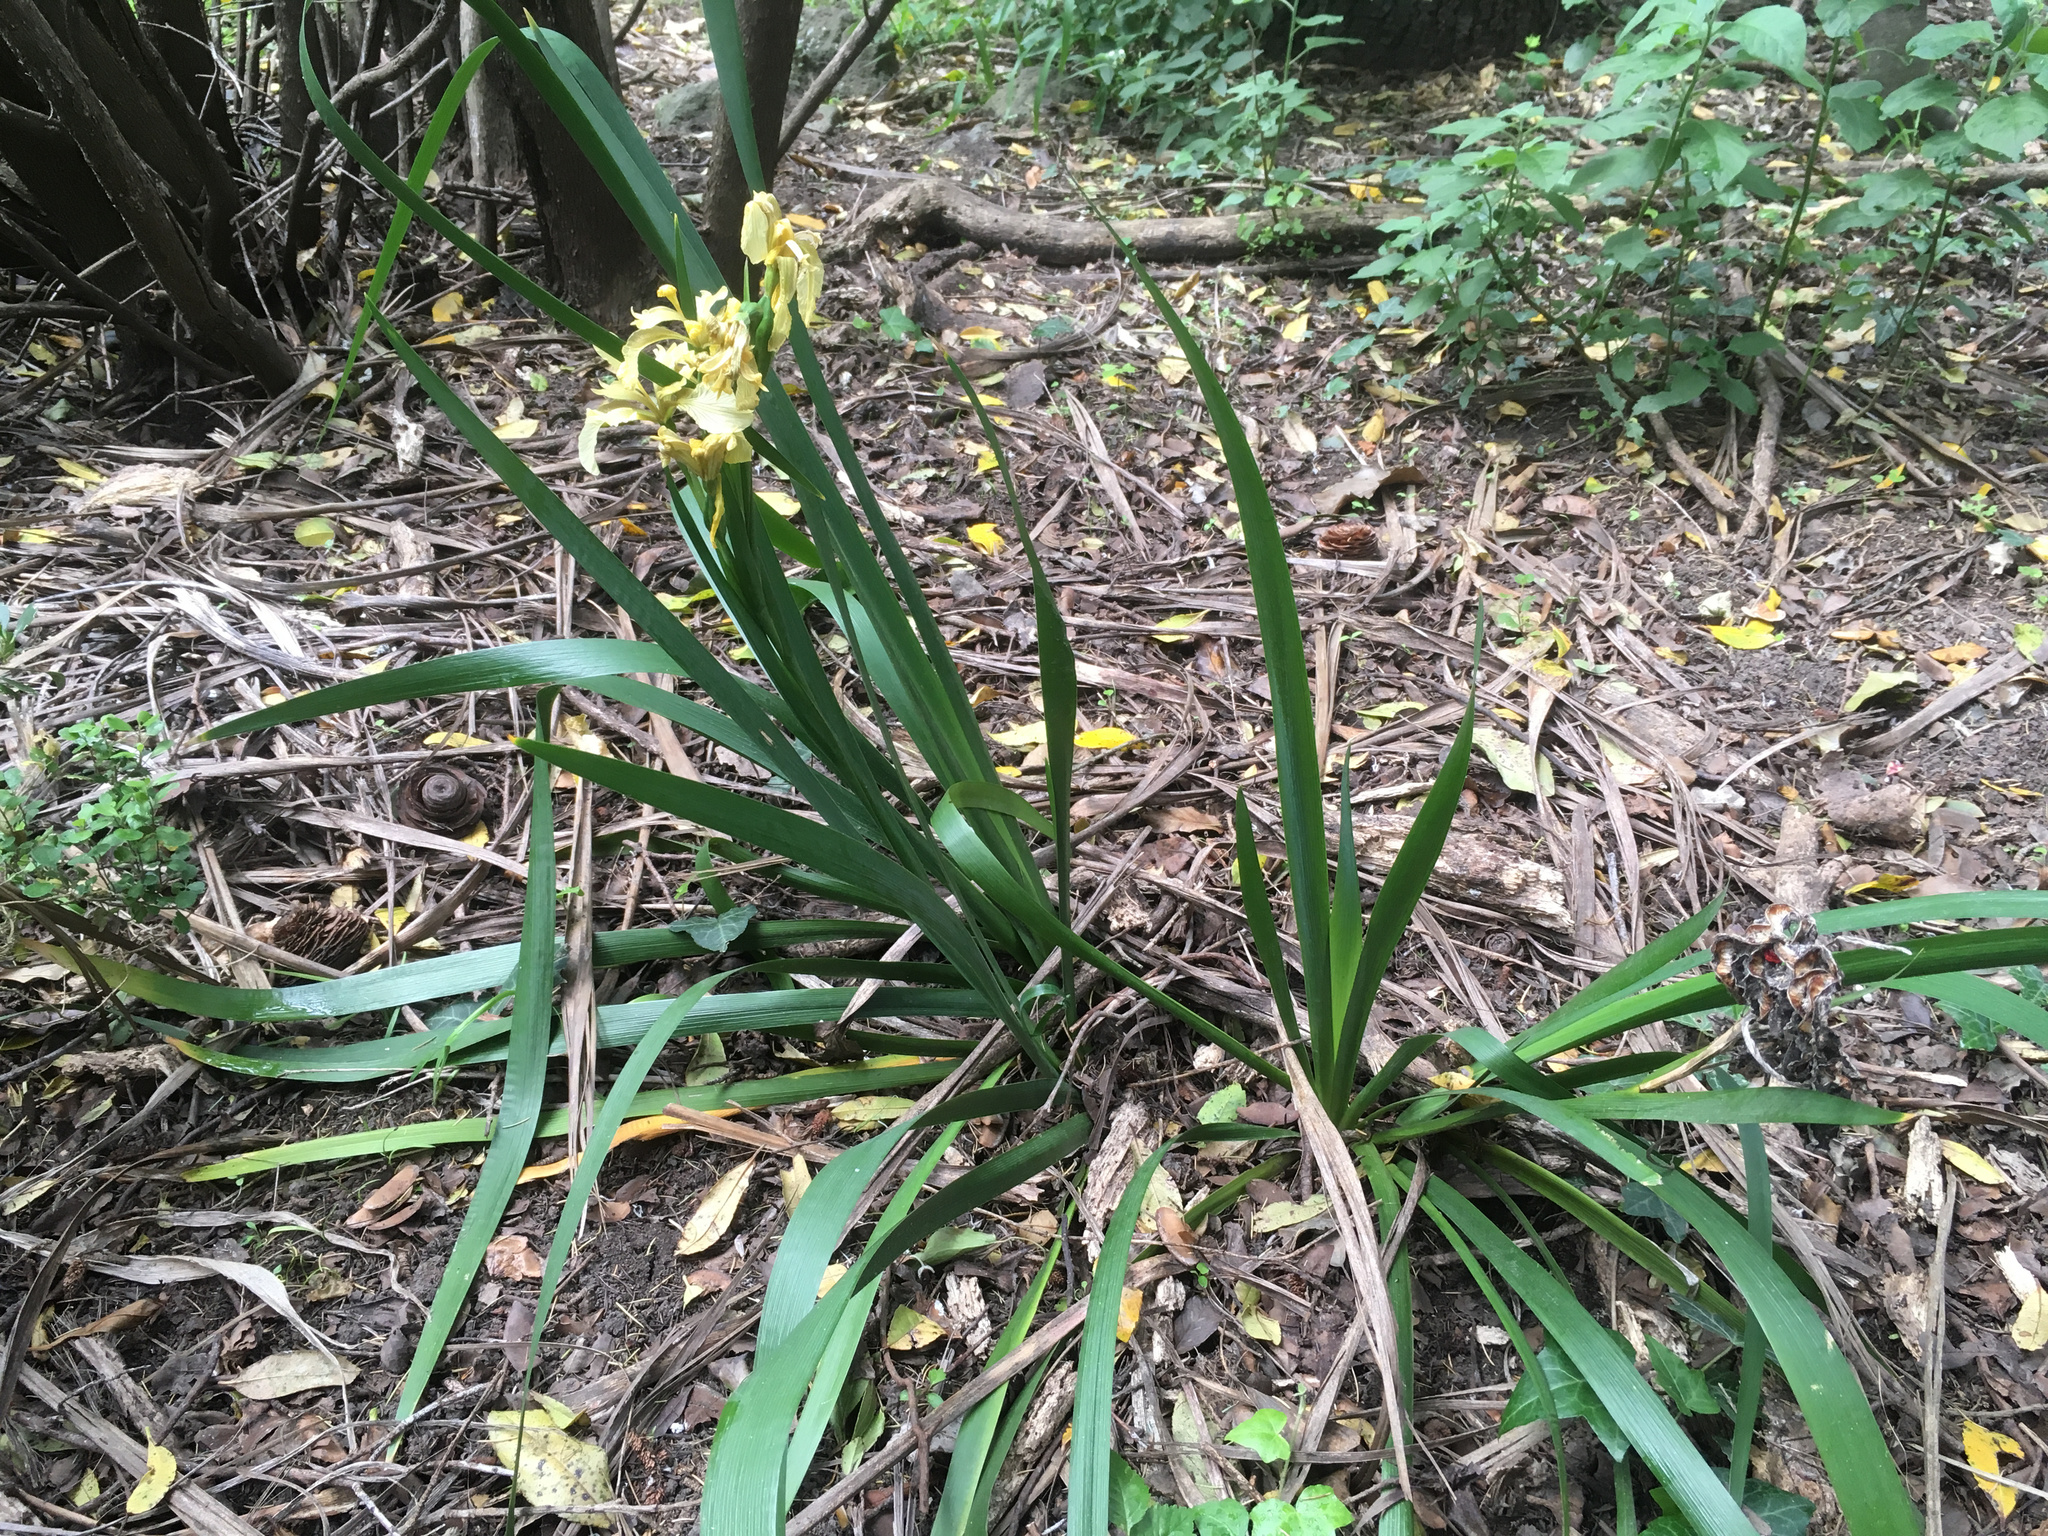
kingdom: Plantae
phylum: Tracheophyta
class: Liliopsida
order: Asparagales
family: Iridaceae
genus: Iris
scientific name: Iris foetidissima
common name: Stinking iris
